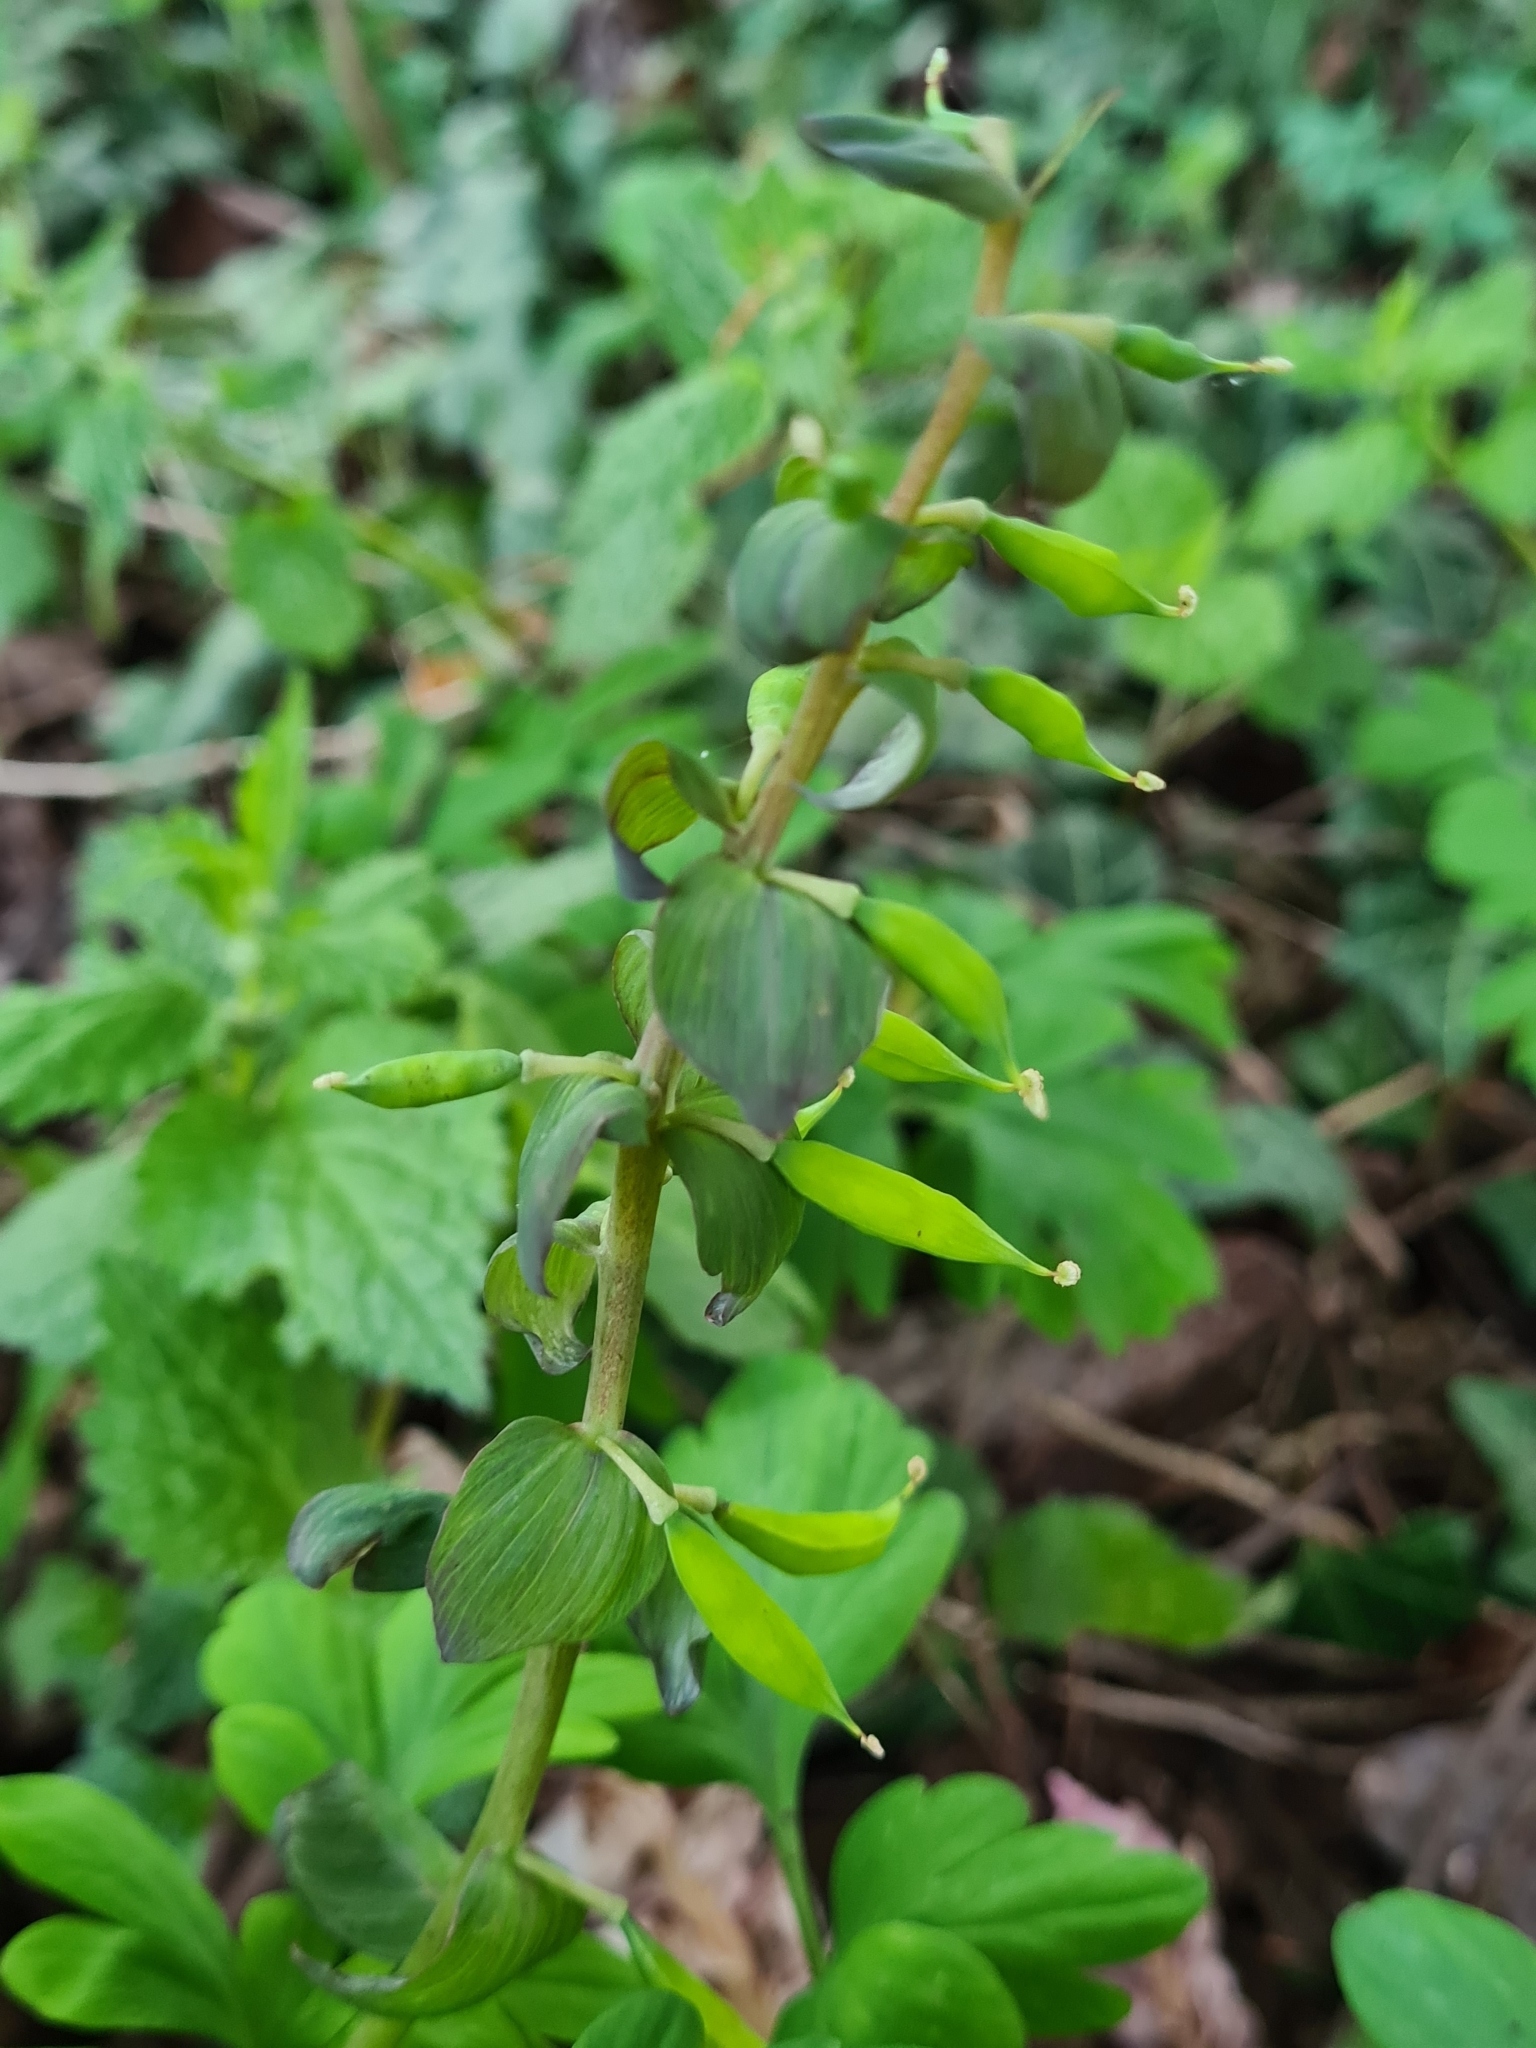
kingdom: Plantae
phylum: Tracheophyta
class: Magnoliopsida
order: Ranunculales
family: Papaveraceae
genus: Corydalis
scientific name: Corydalis cava
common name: Hollowroot
